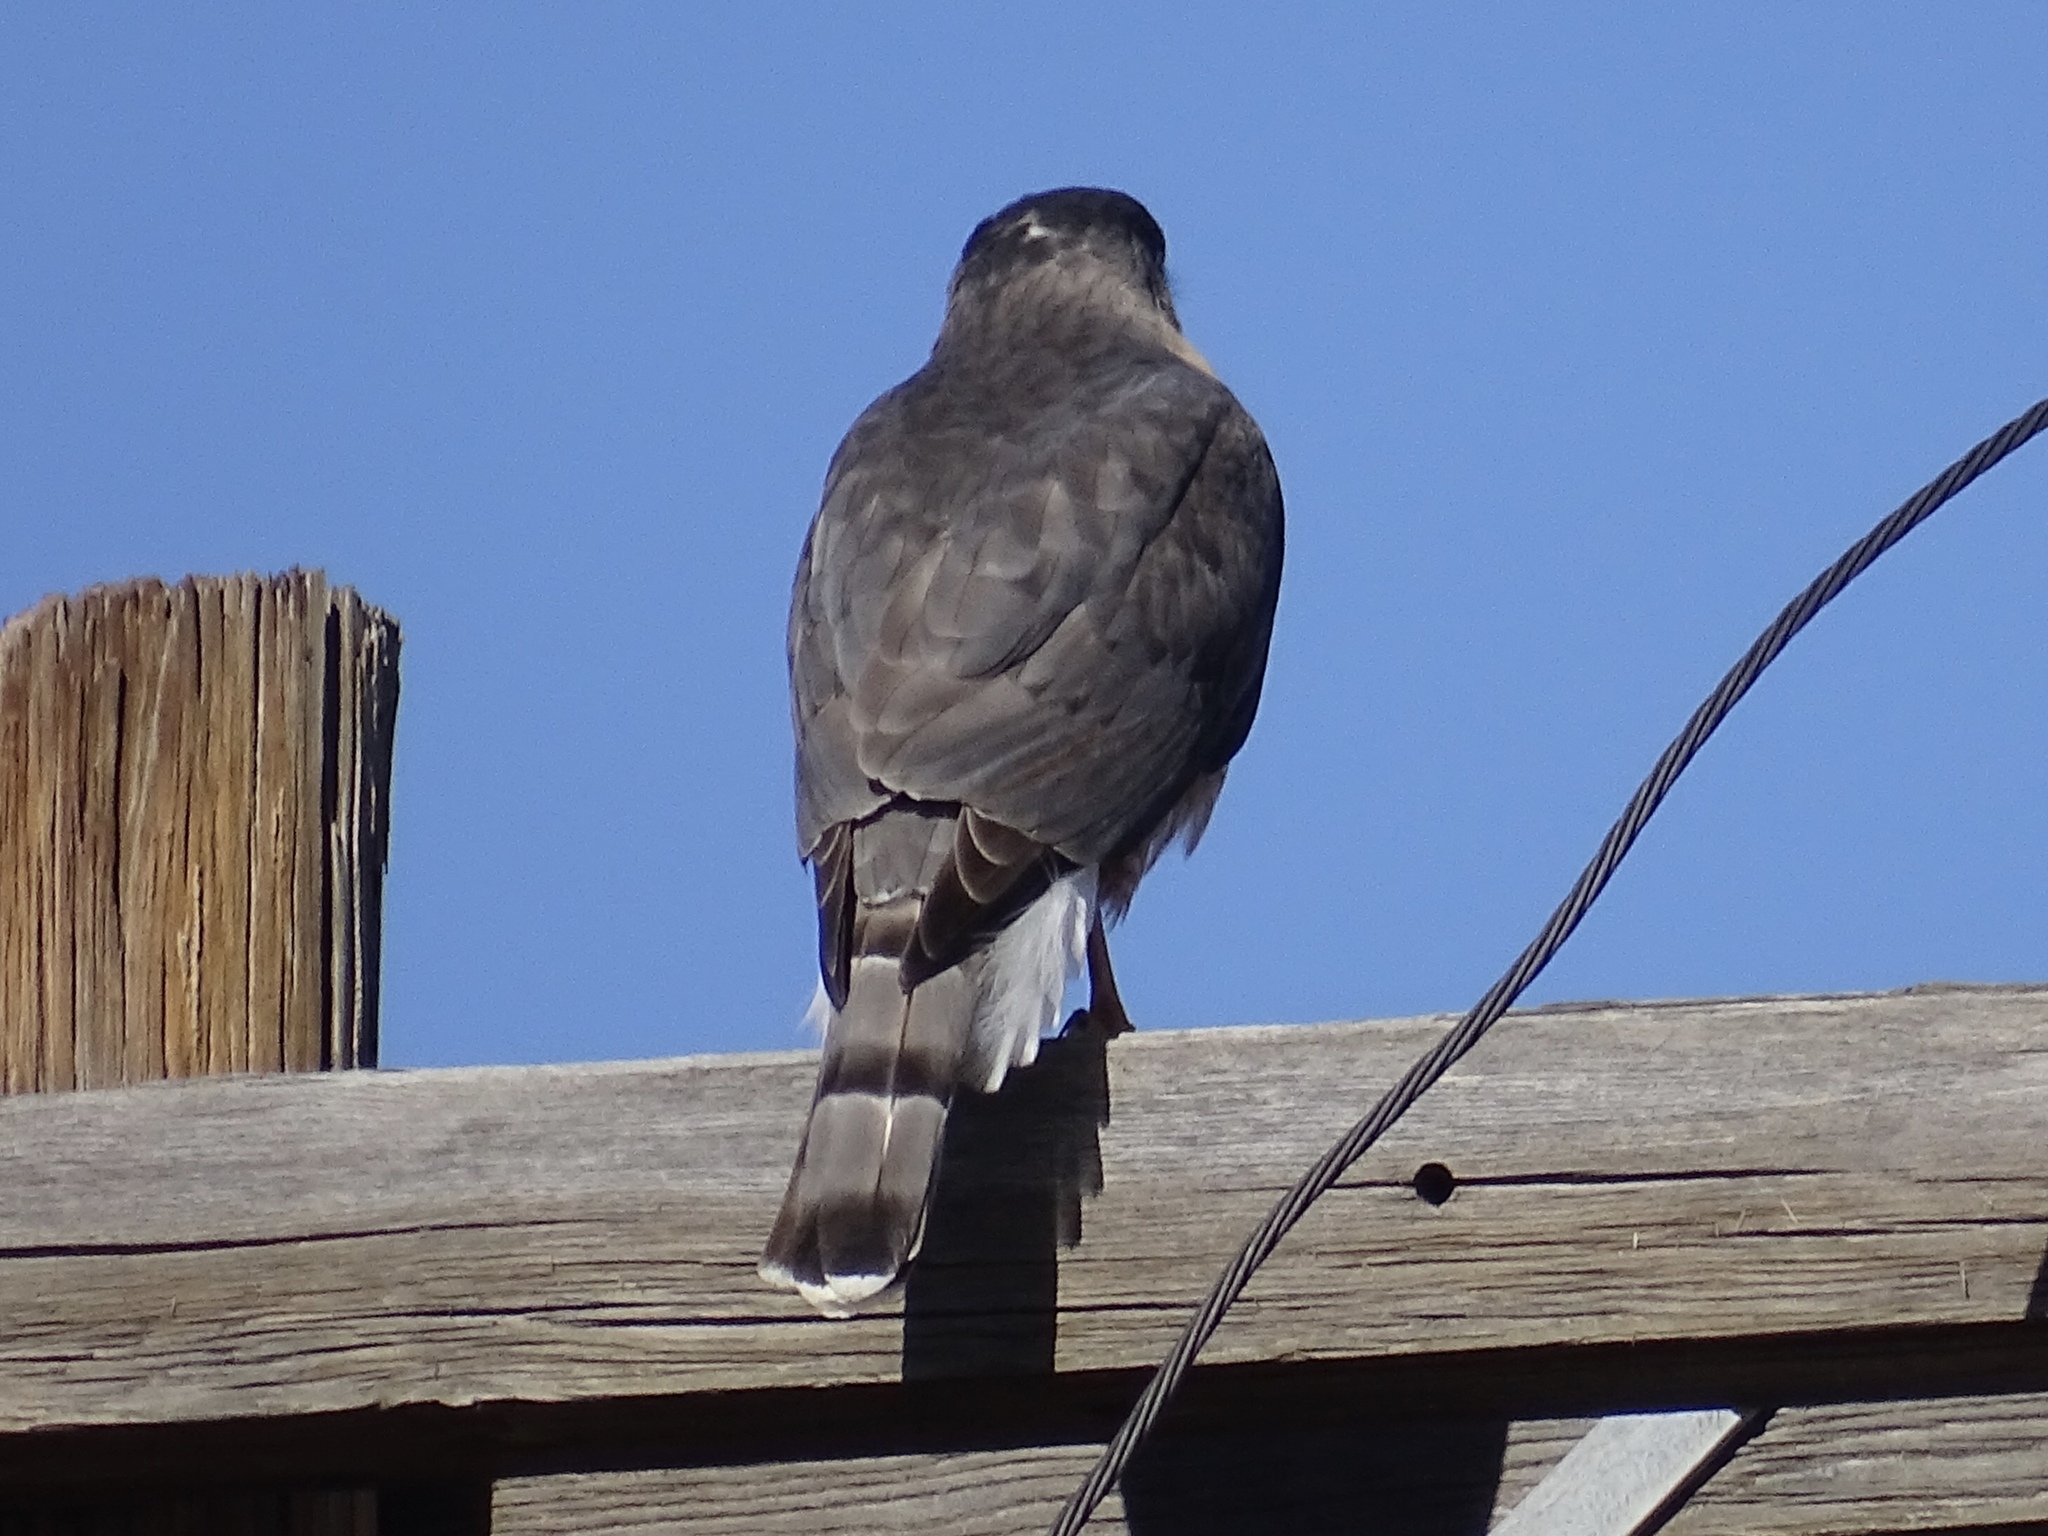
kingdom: Animalia
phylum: Chordata
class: Aves
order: Accipitriformes
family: Accipitridae
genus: Accipiter
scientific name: Accipiter cooperii
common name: Cooper's hawk
